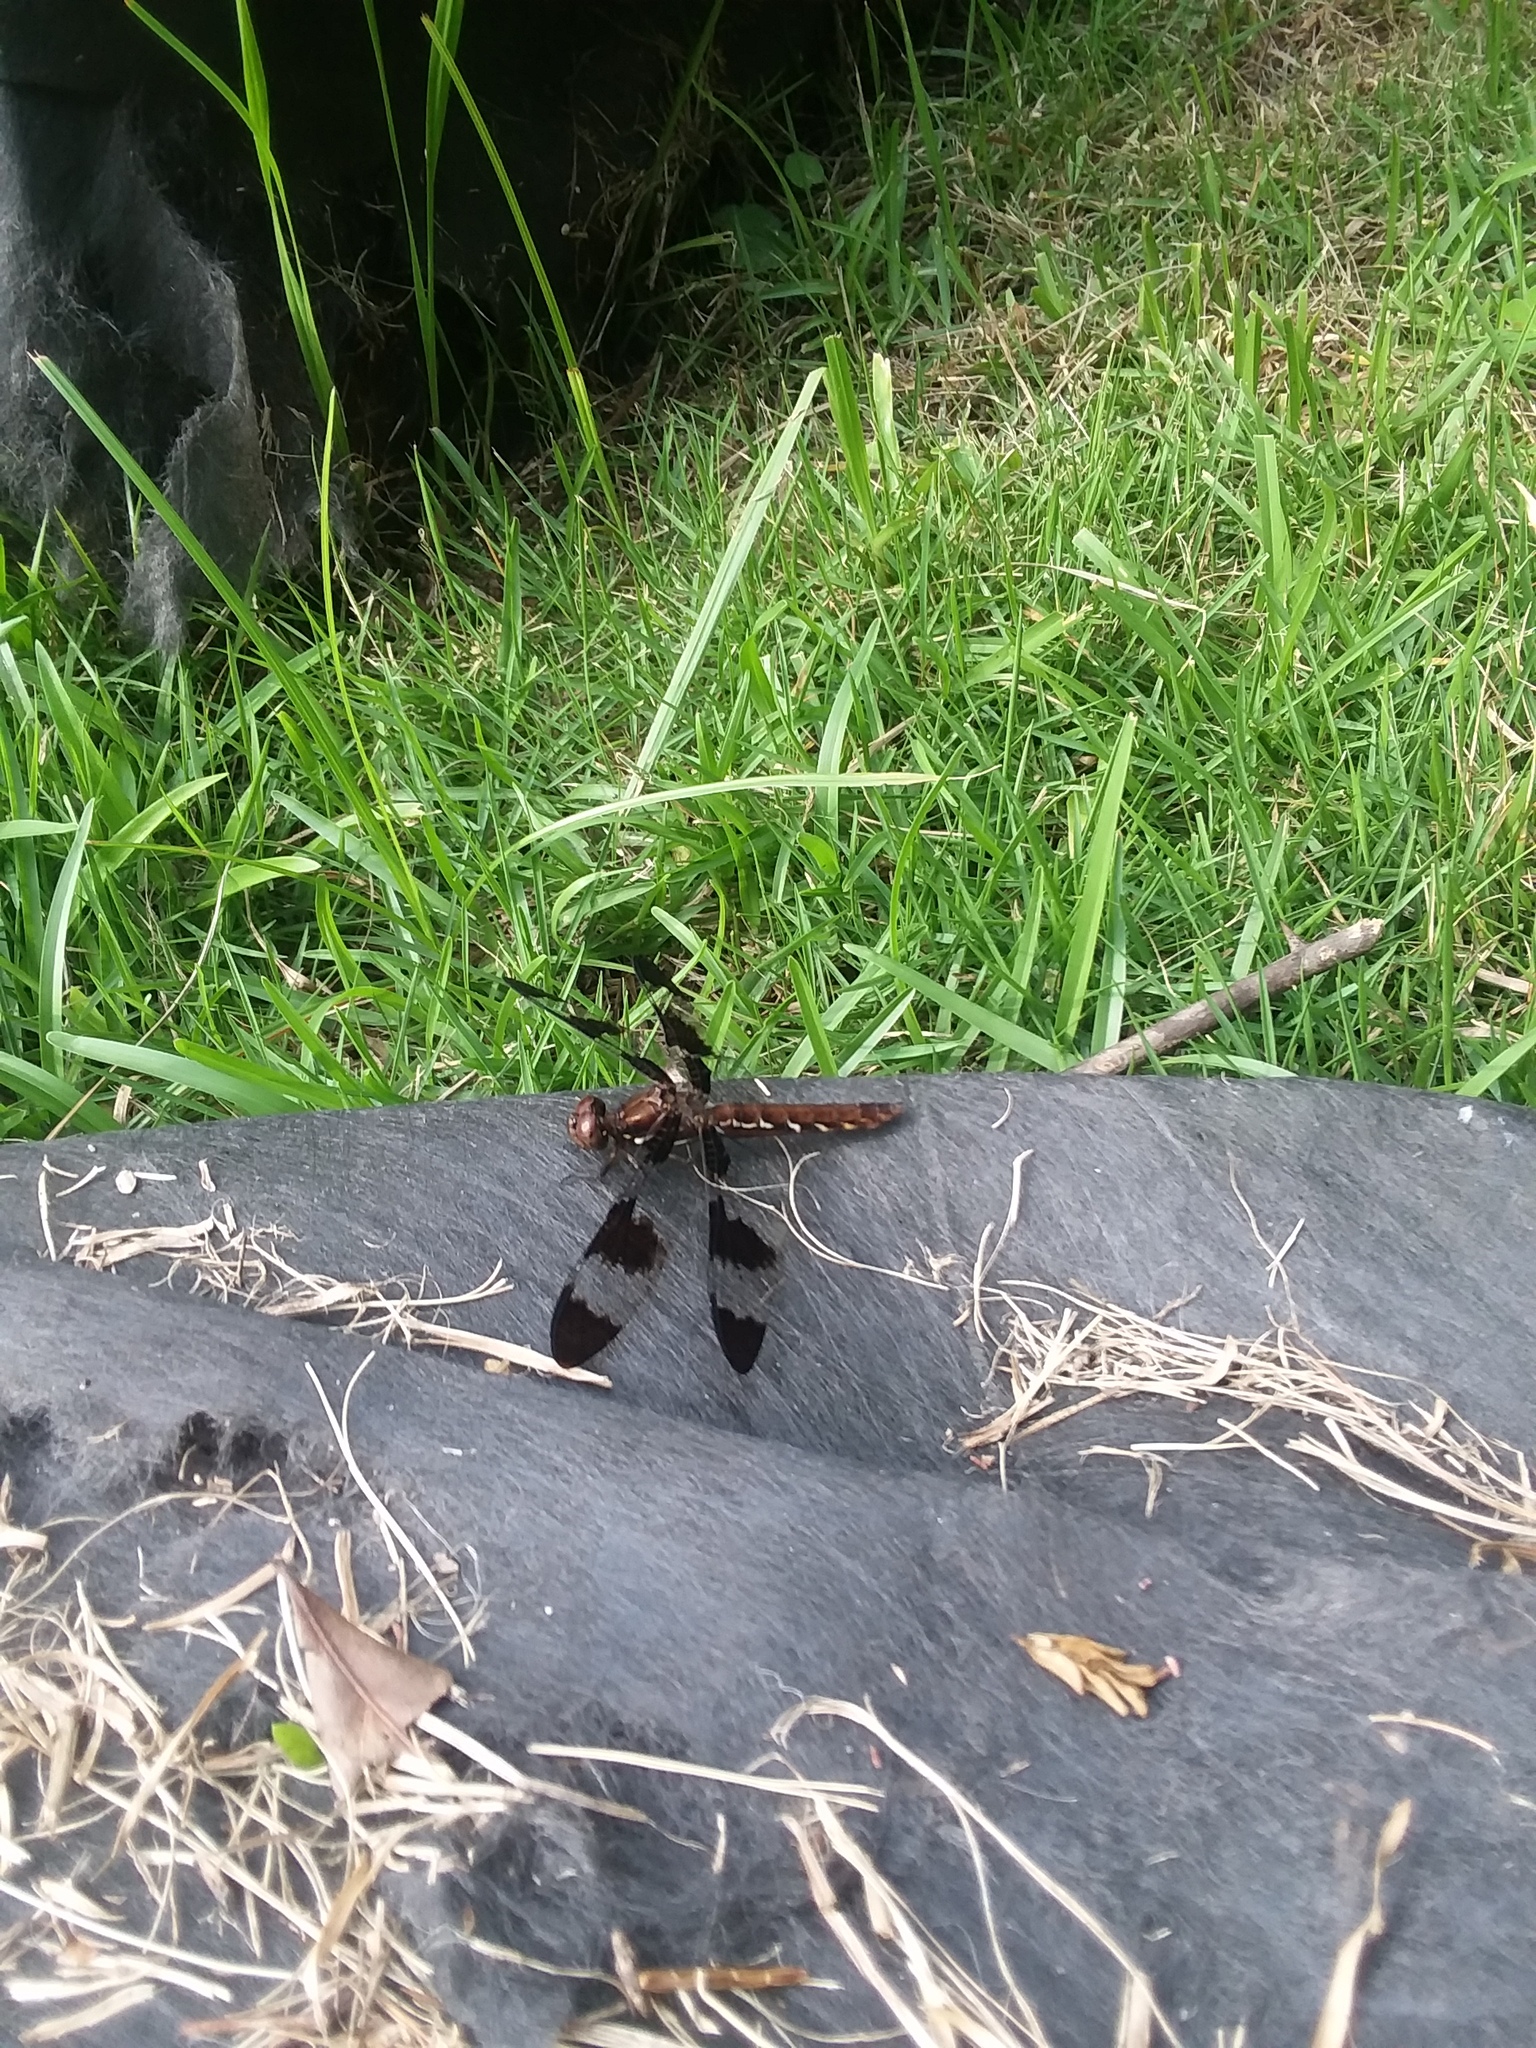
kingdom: Animalia
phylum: Arthropoda
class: Insecta
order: Odonata
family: Libellulidae
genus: Plathemis
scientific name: Plathemis lydia
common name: Common whitetail
